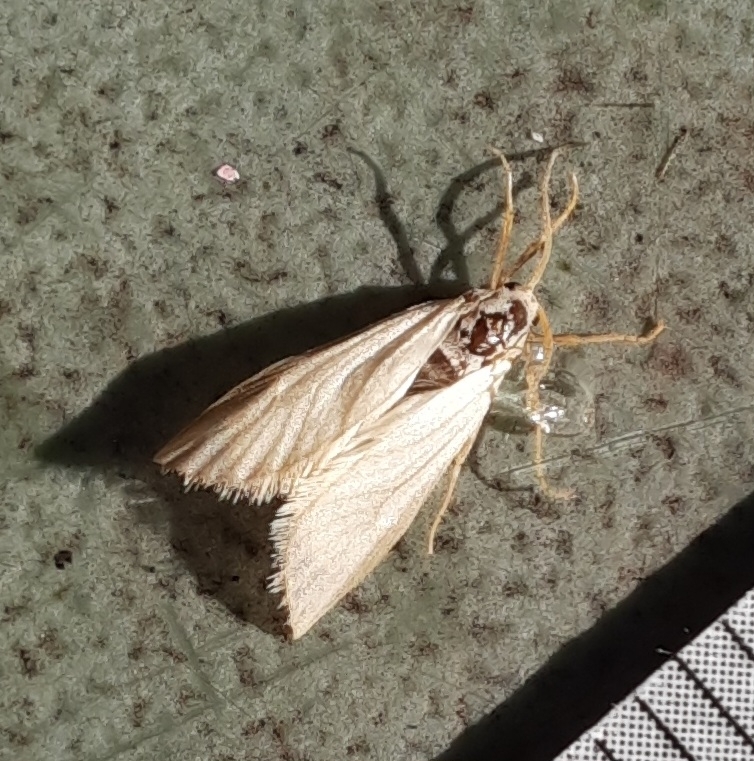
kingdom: Animalia
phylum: Arthropoda
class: Insecta
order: Lepidoptera
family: Crambidae
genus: Acentria
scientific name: Acentria ephemerella
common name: European water moth
